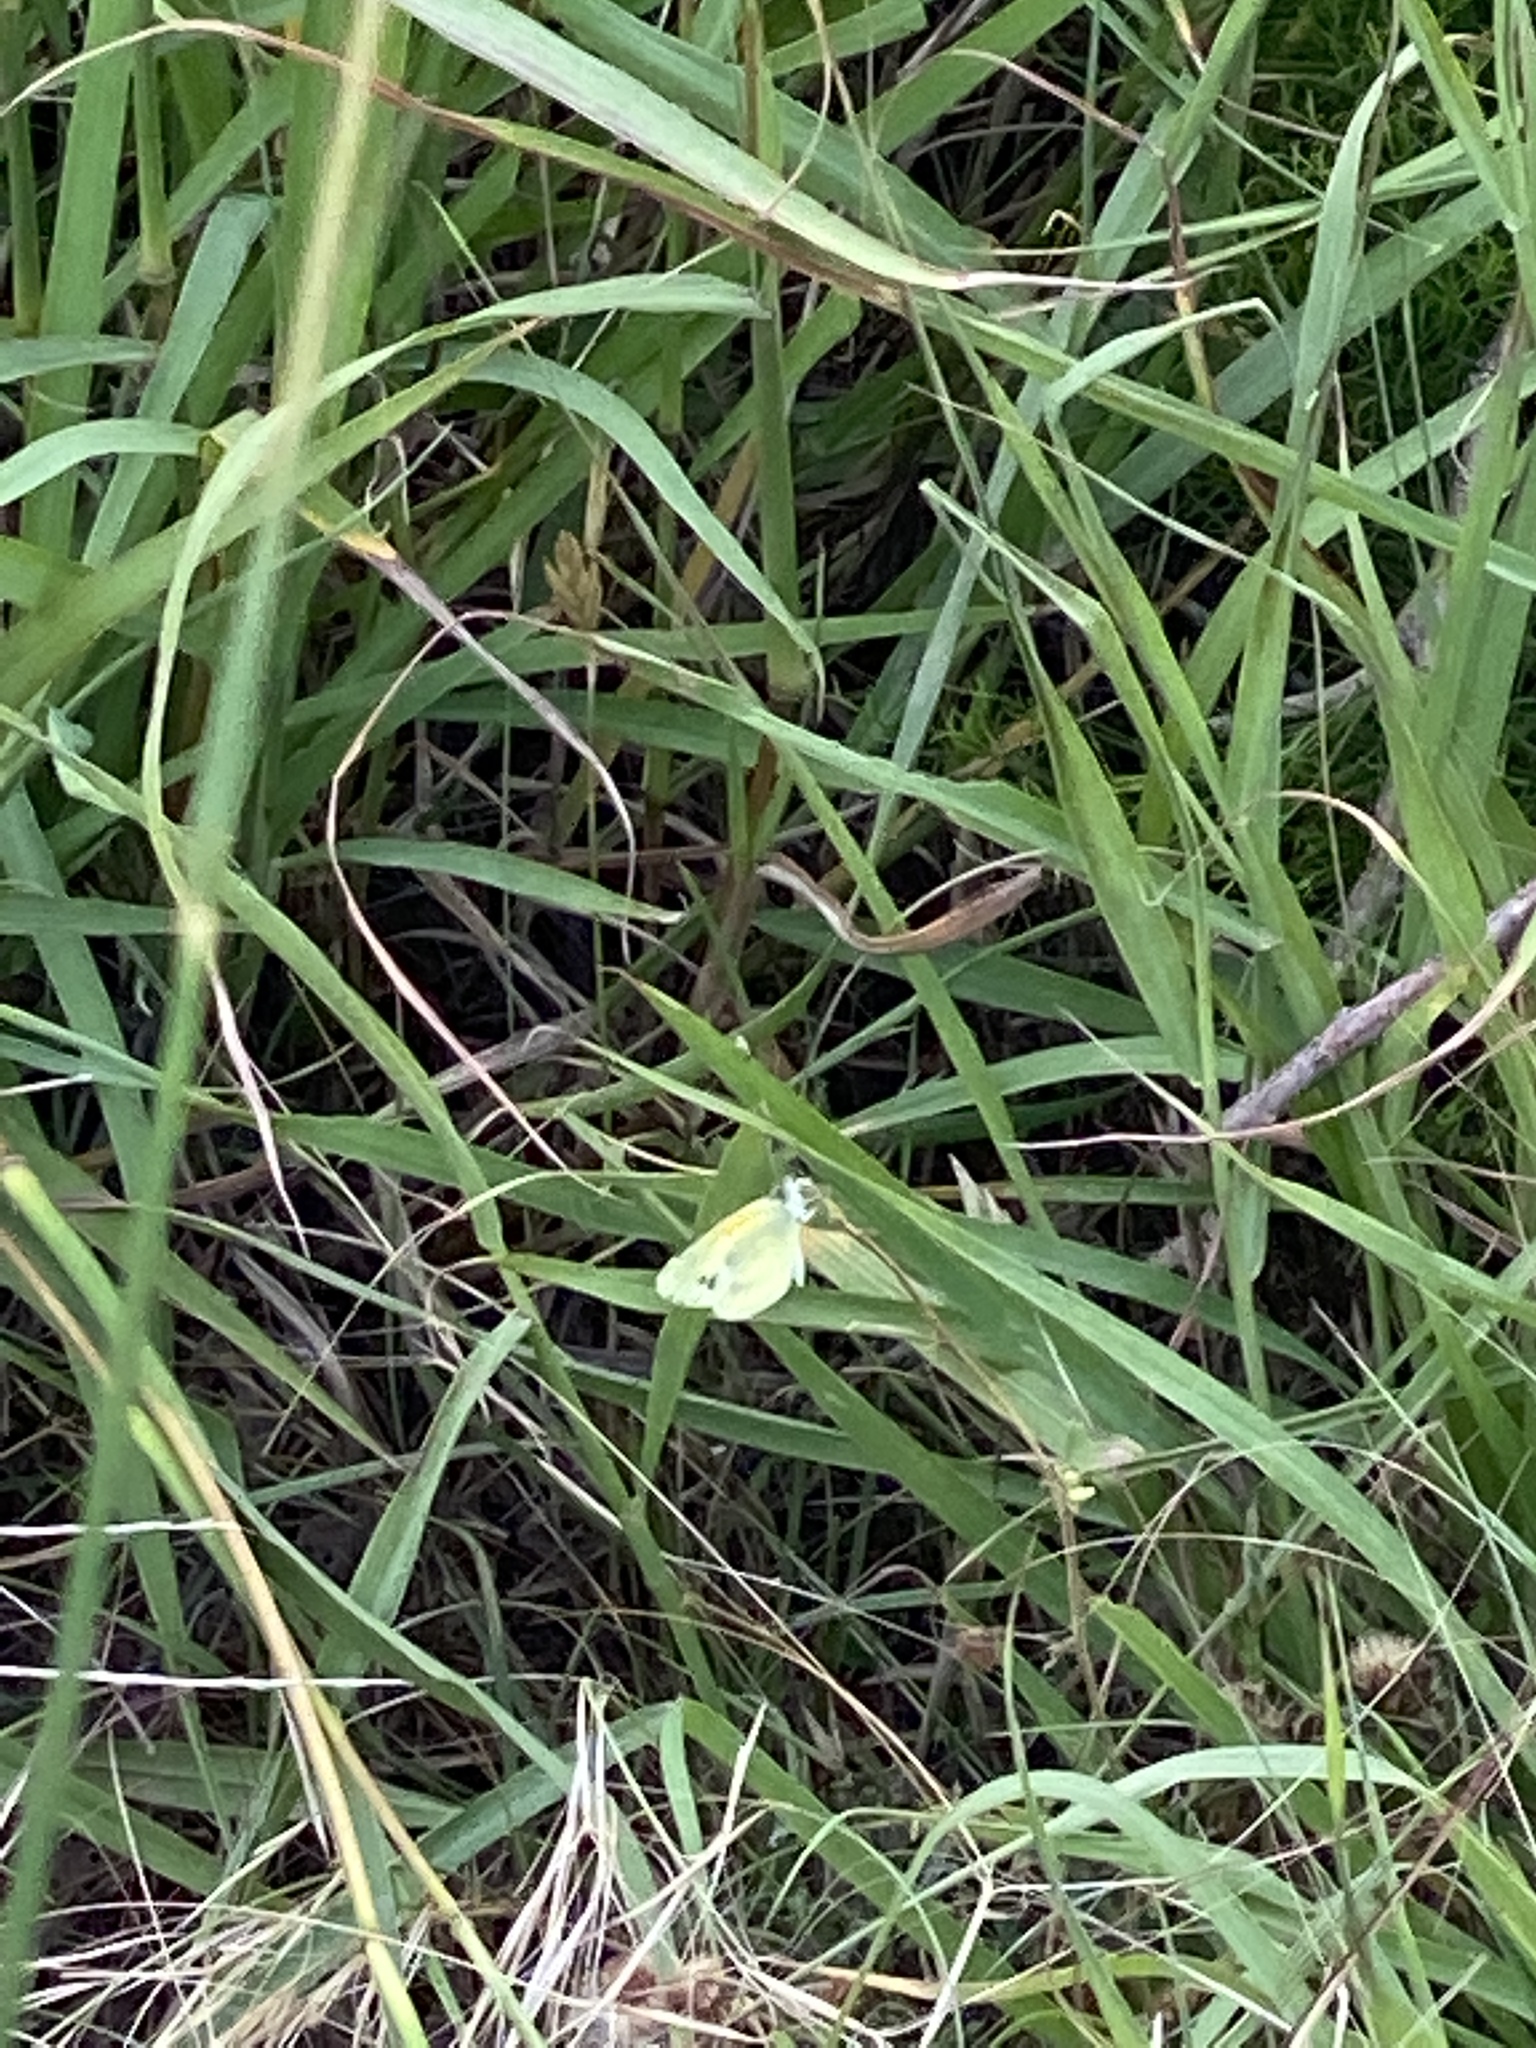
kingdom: Animalia
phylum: Arthropoda
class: Insecta
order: Lepidoptera
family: Pieridae
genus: Nathalis
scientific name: Nathalis iole
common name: Dainty sulphur
